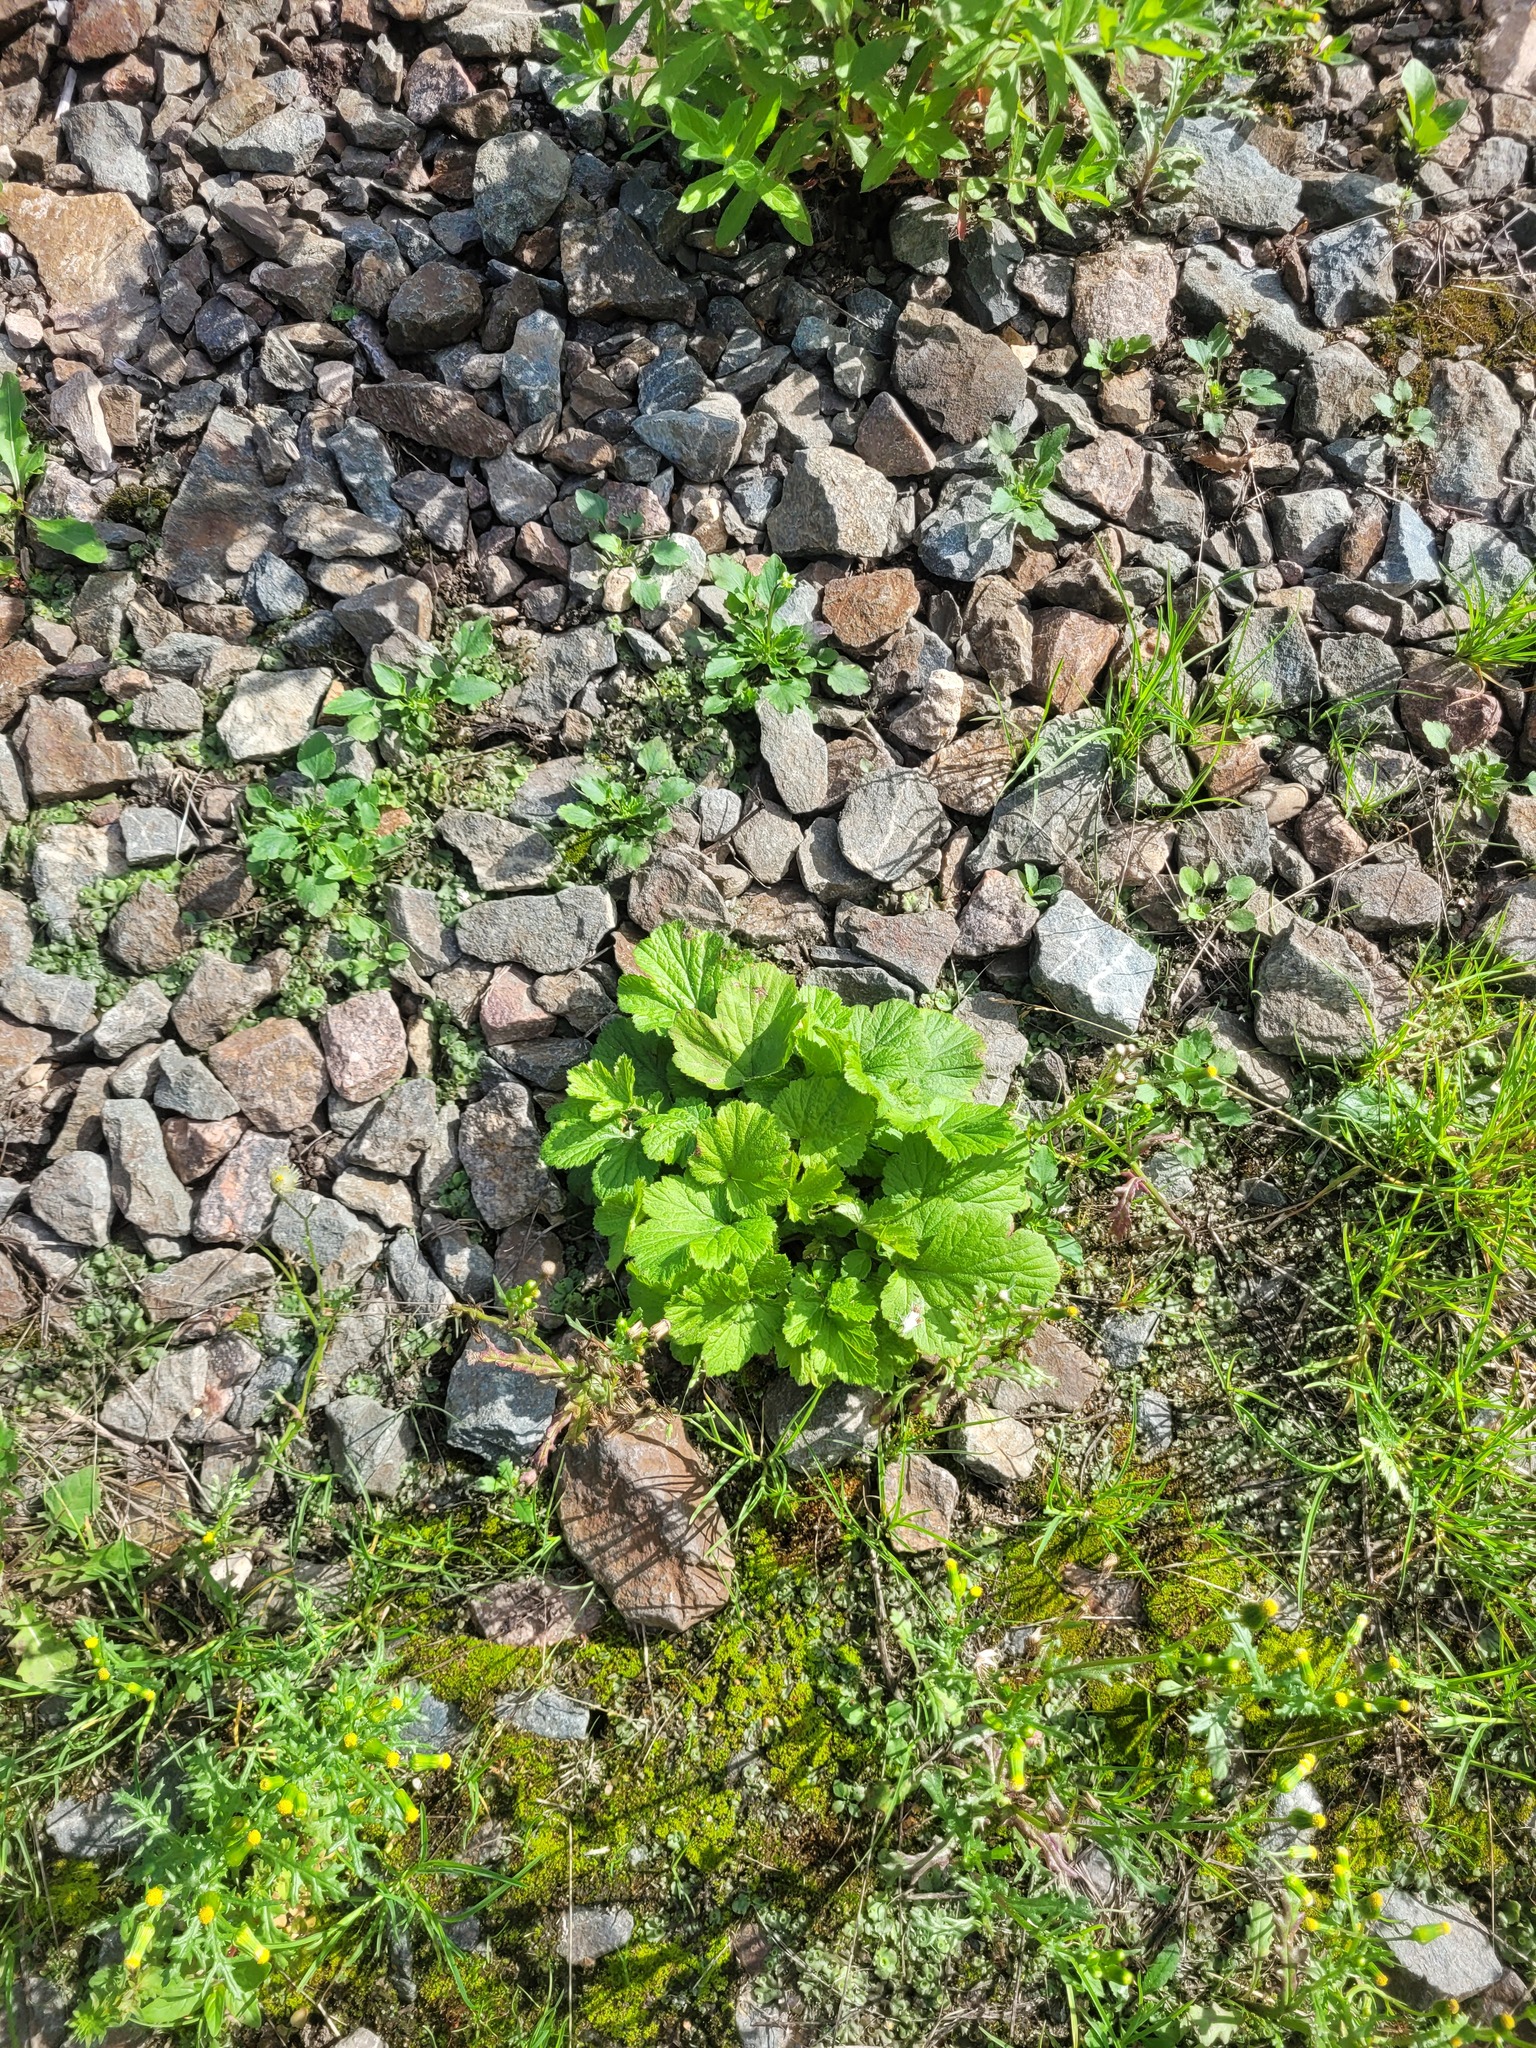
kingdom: Plantae
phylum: Tracheophyta
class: Magnoliopsida
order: Rosales
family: Rosaceae
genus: Geum
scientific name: Geum urbanum
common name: Wood avens
